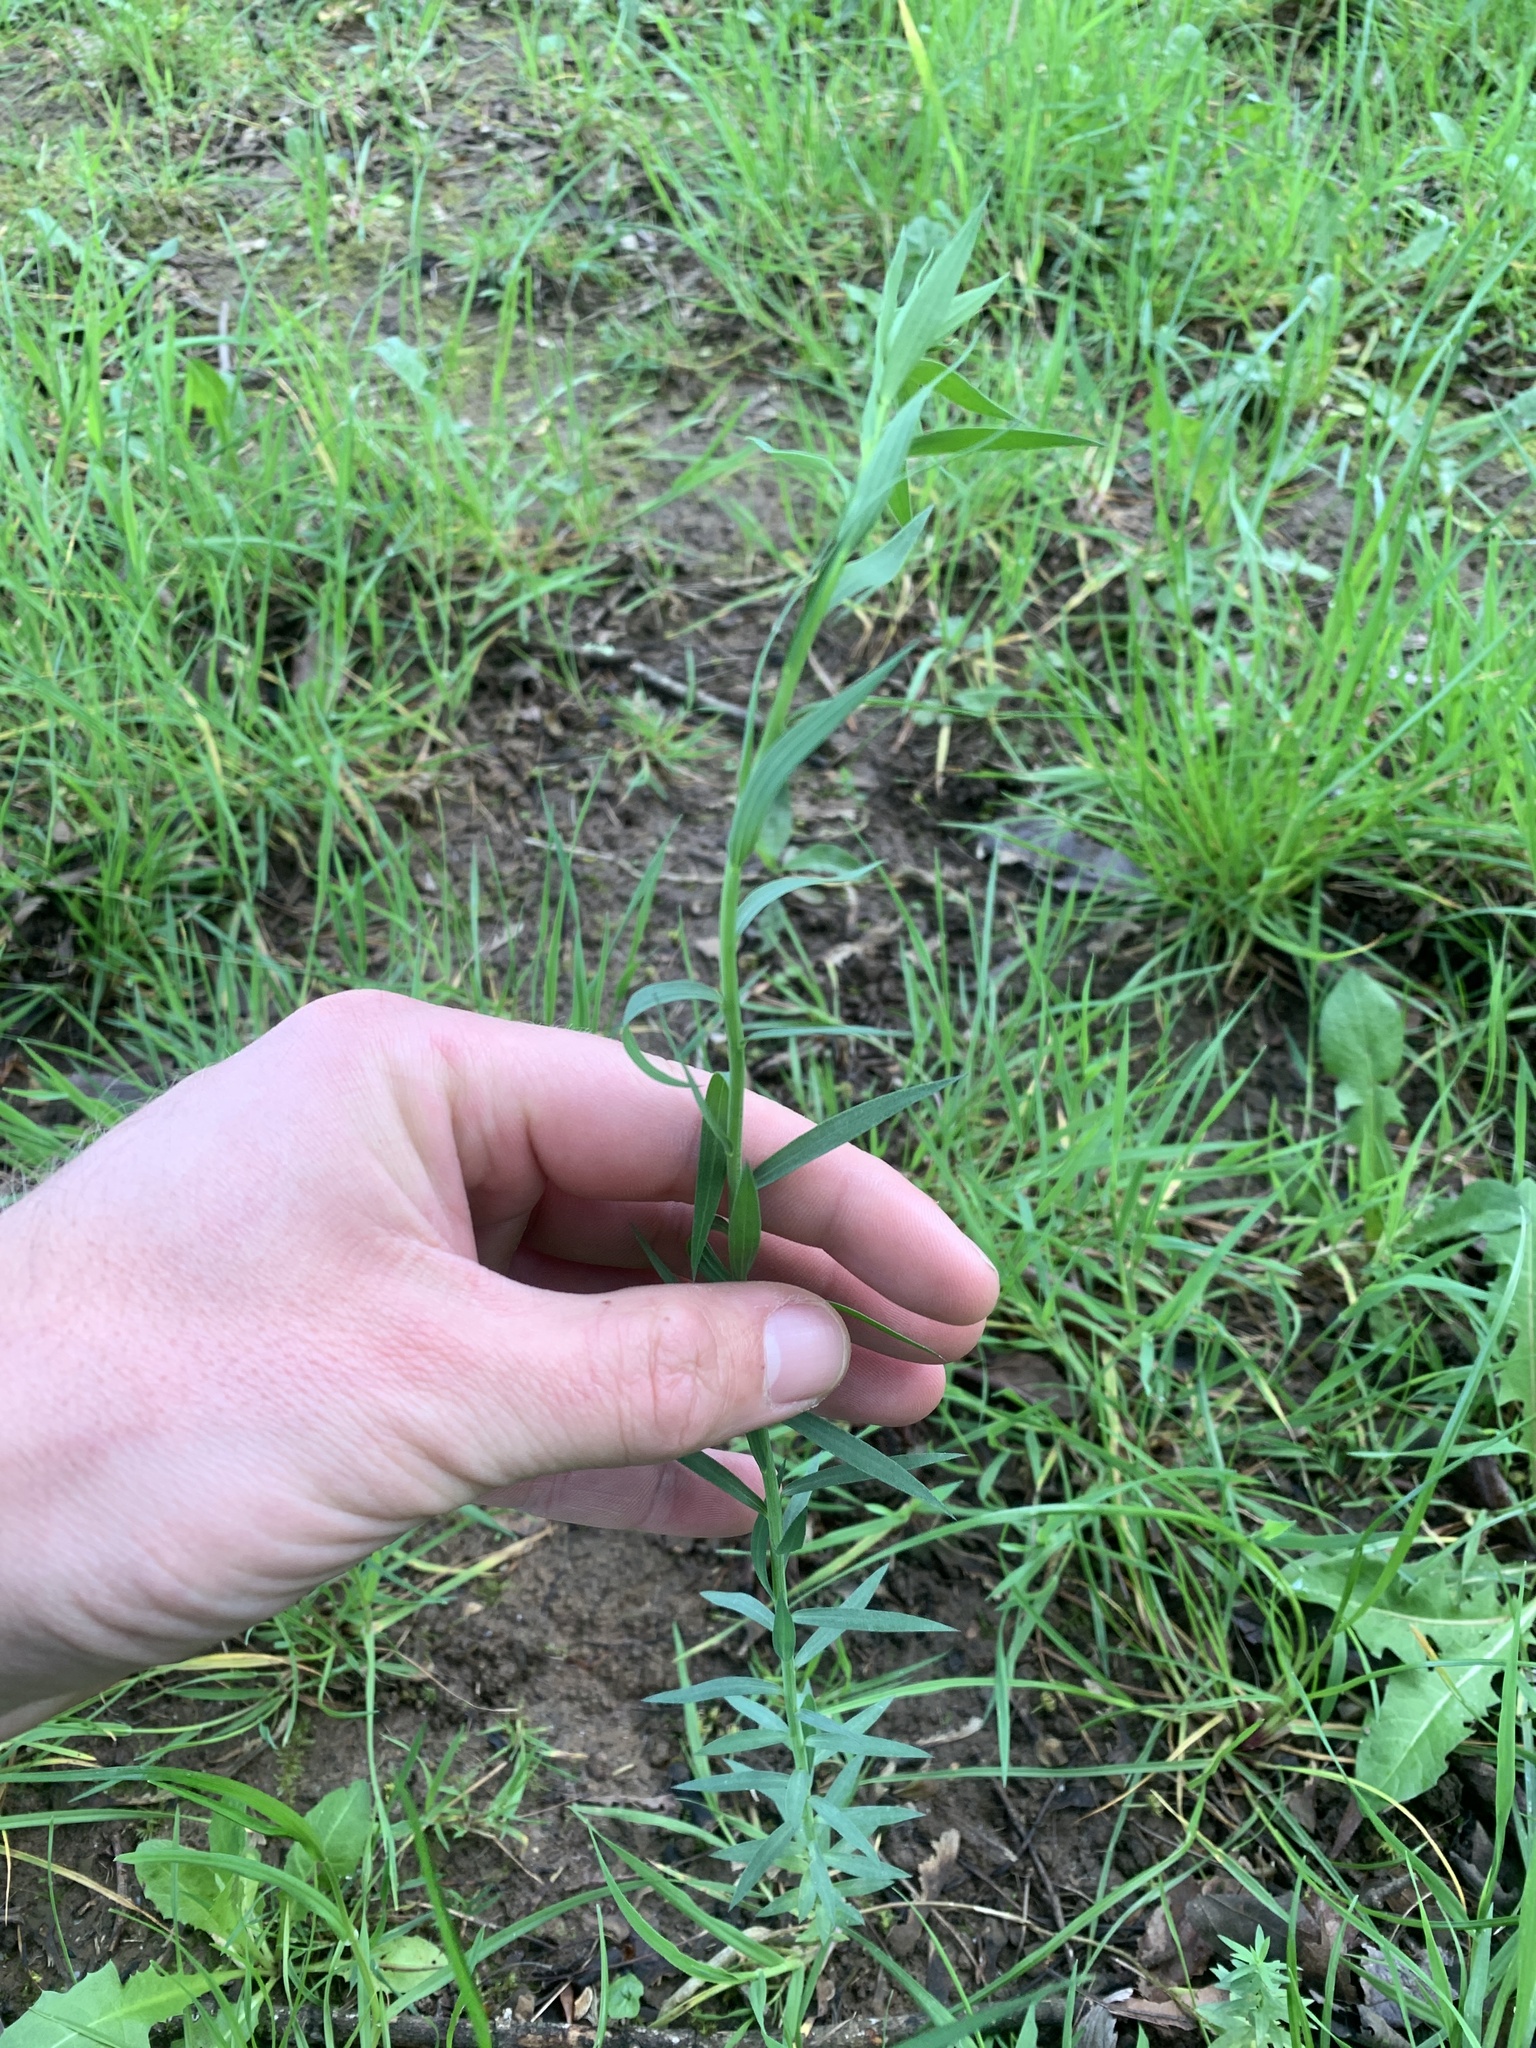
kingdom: Plantae
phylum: Tracheophyta
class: Magnoliopsida
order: Malpighiales
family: Linaceae
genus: Linum
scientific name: Linum pratense
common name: Norton's flax
